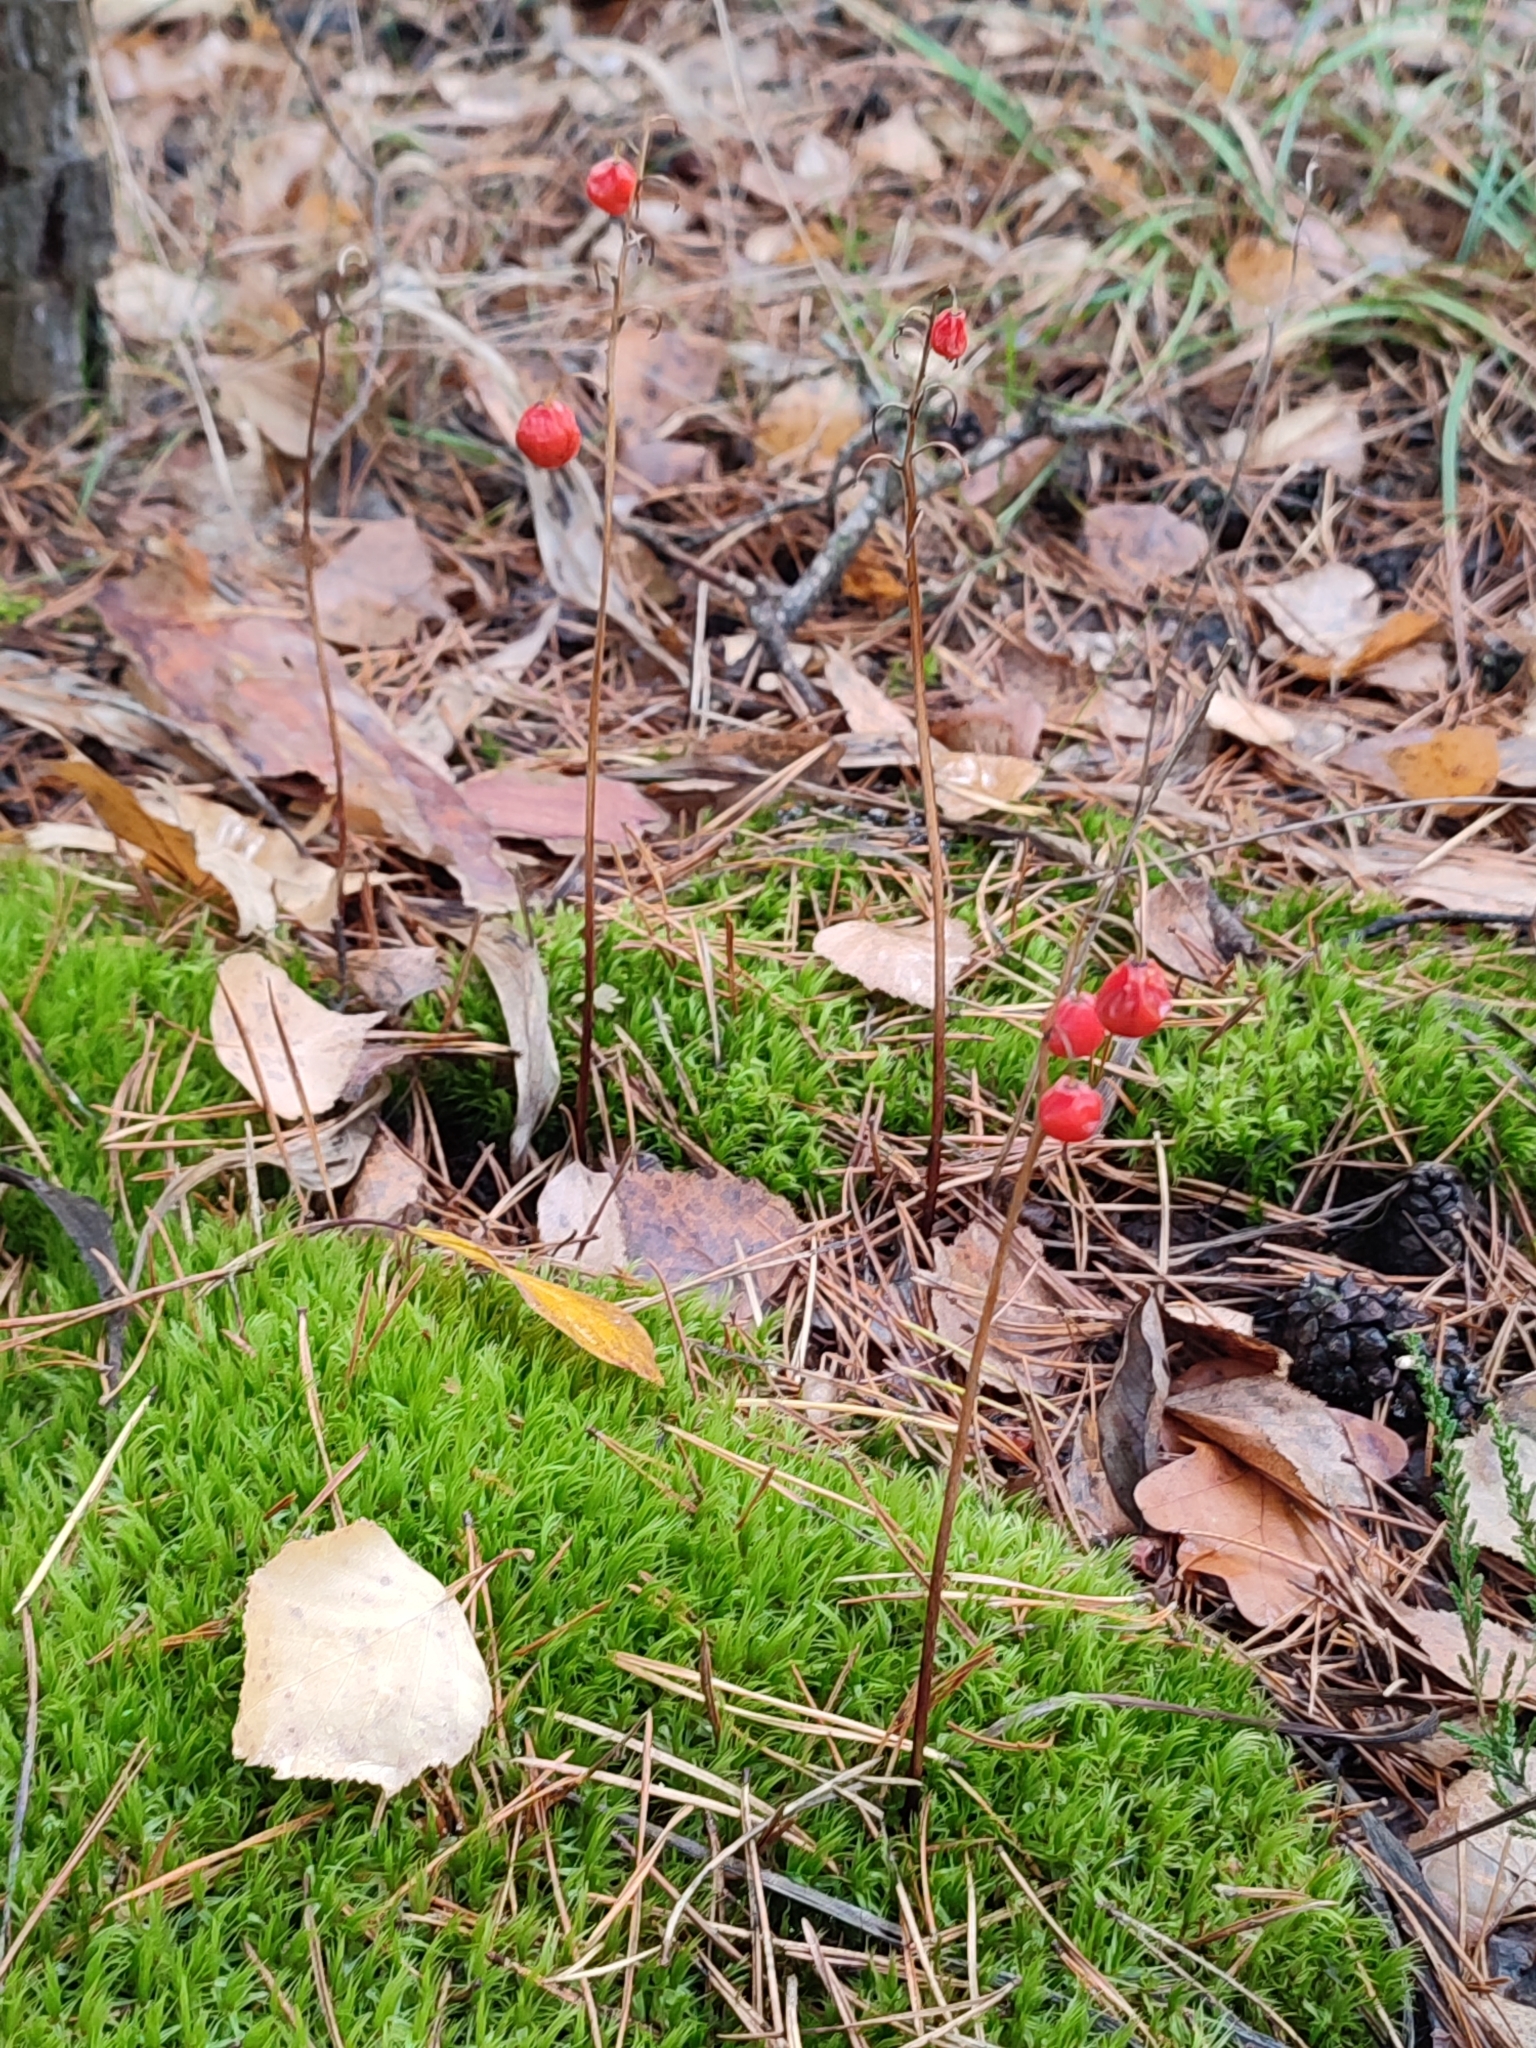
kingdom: Plantae
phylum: Tracheophyta
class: Liliopsida
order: Asparagales
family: Asparagaceae
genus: Convallaria
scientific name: Convallaria majalis
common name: Lily-of-the-valley
